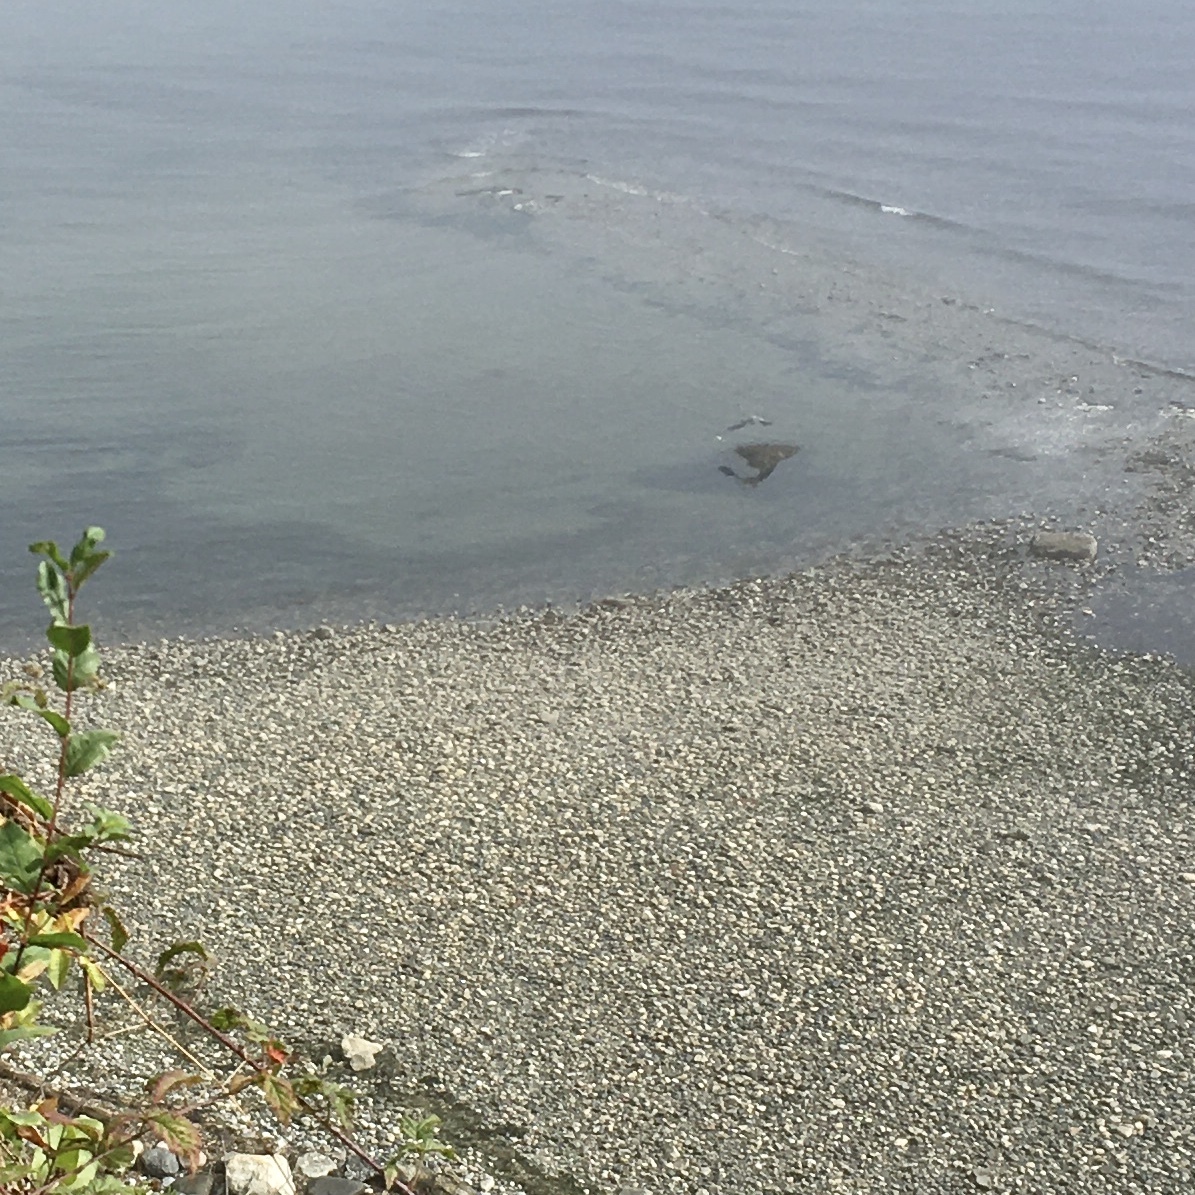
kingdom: Animalia
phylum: Chordata
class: Aves
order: Pelecaniformes
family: Ardeidae
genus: Ardea
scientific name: Ardea herodias
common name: Great blue heron
